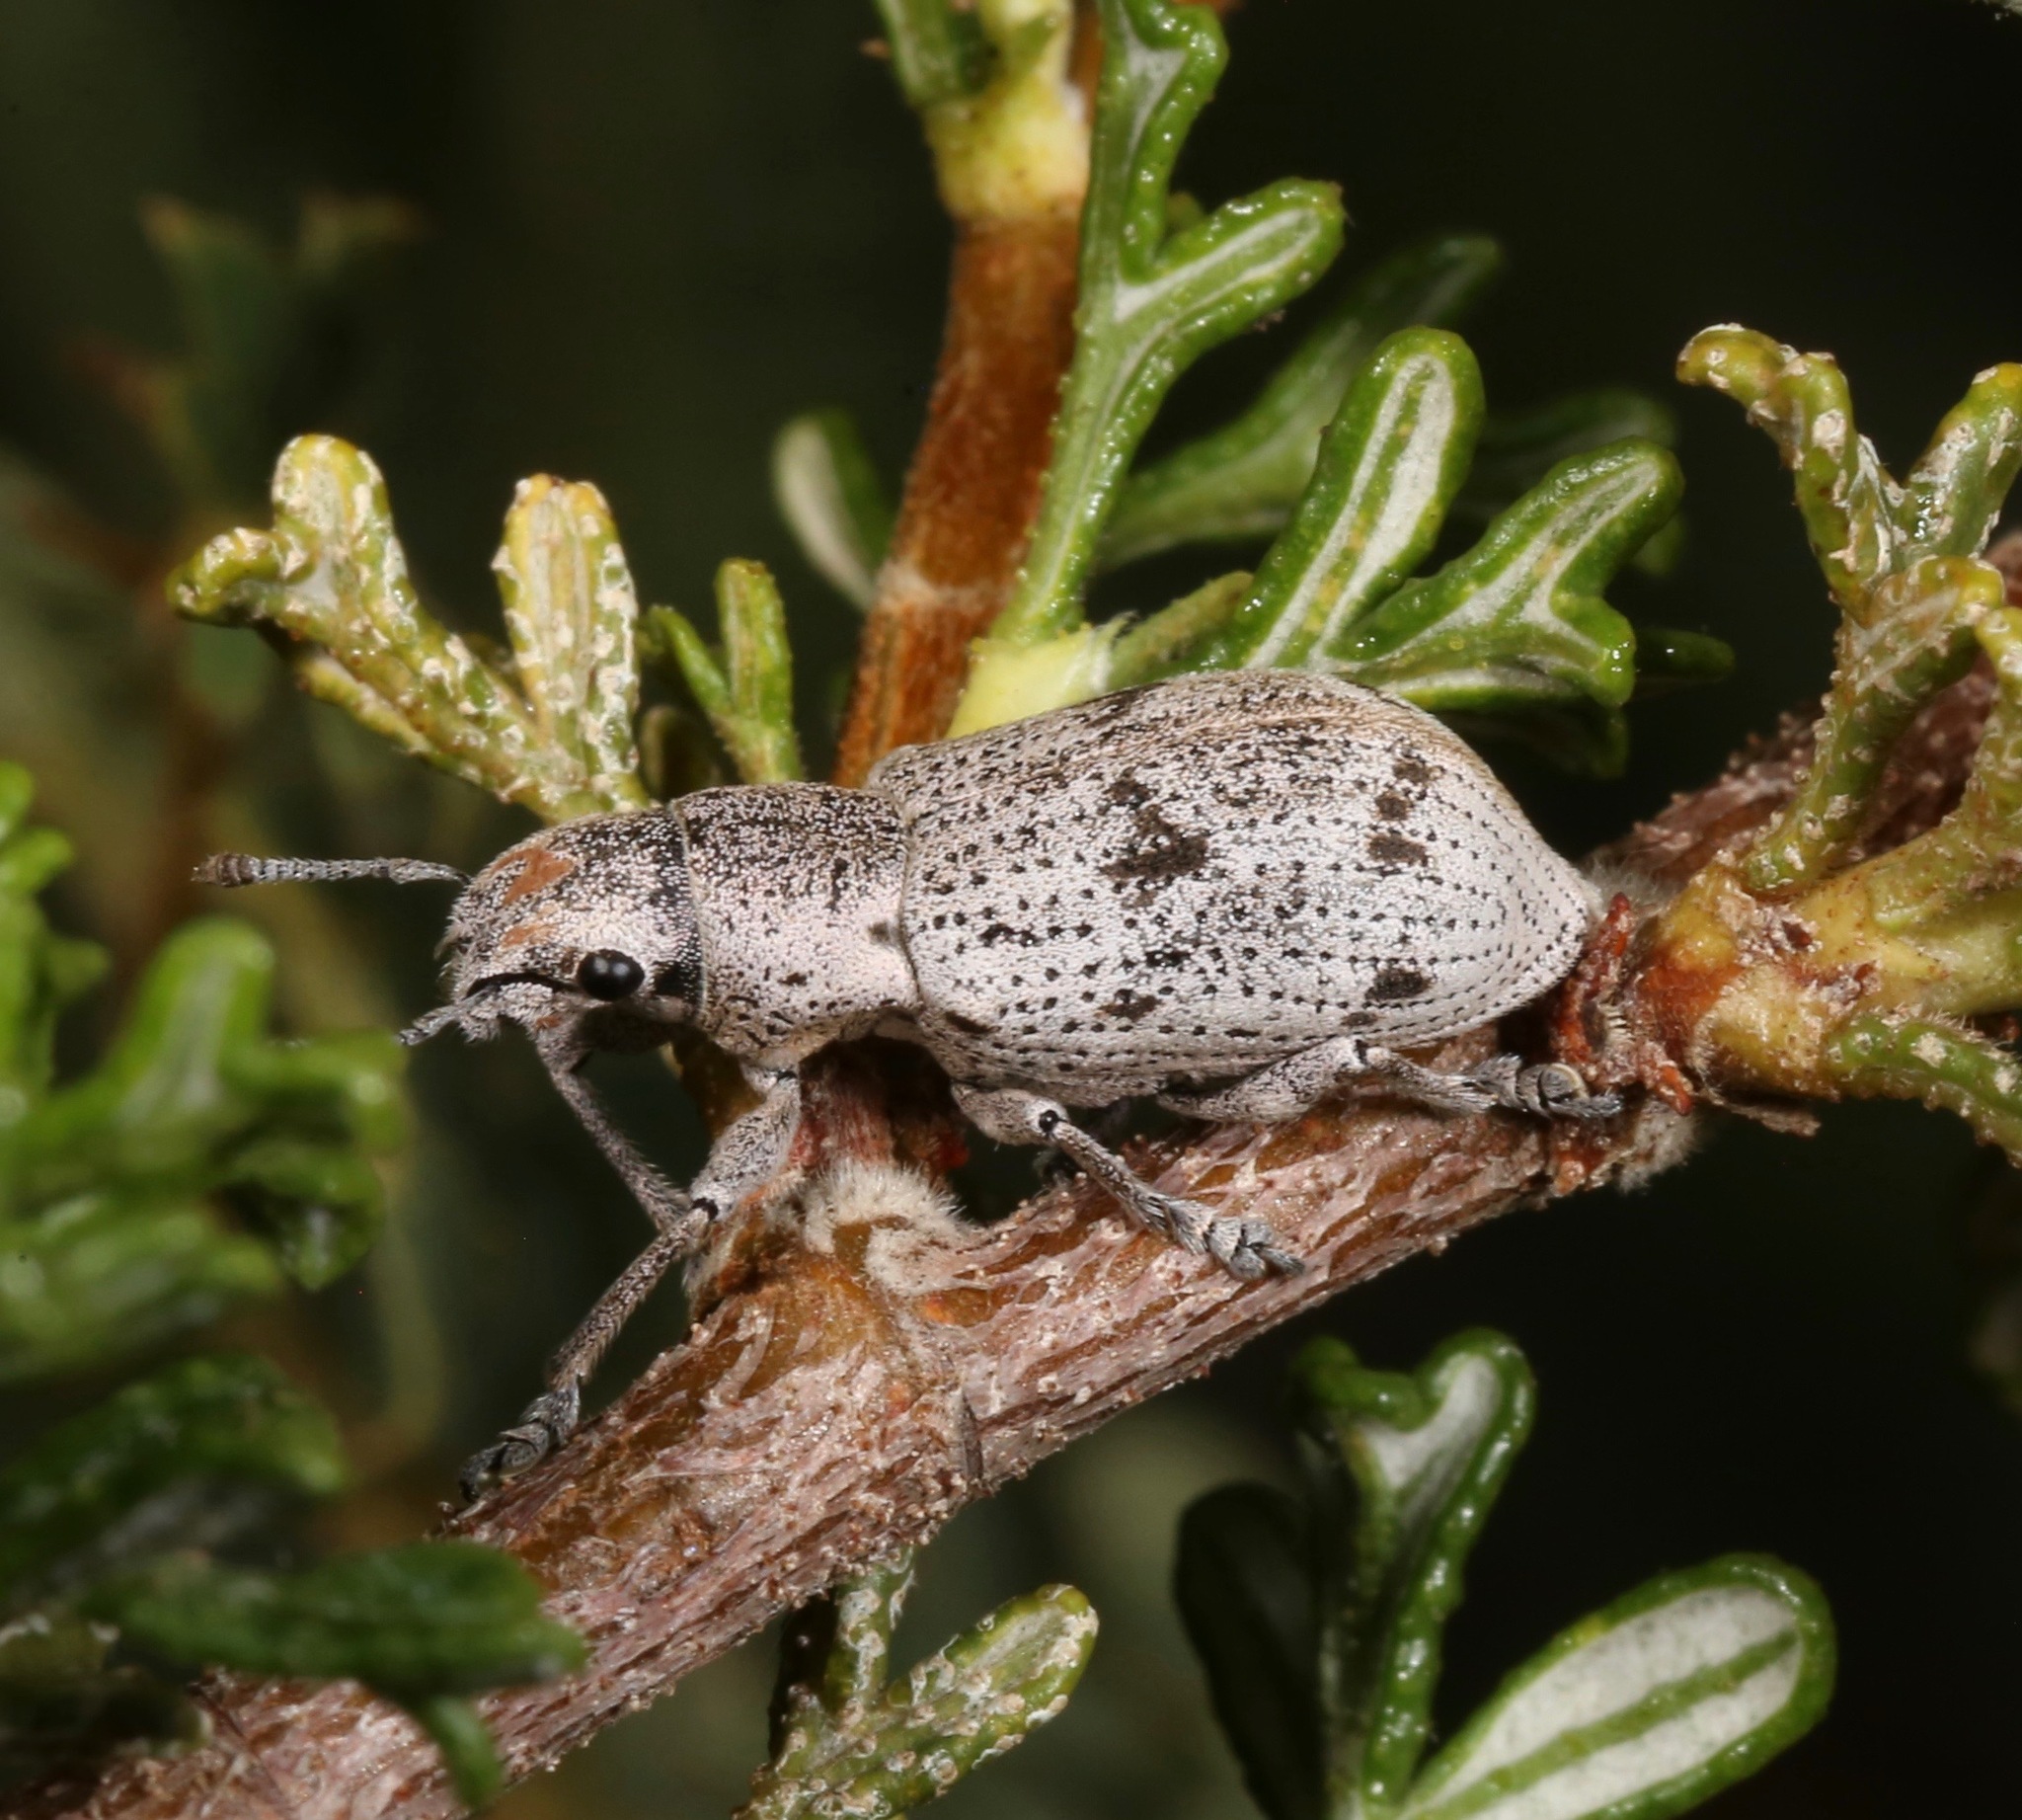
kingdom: Animalia
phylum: Arthropoda
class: Insecta
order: Coleoptera
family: Curculionidae
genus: Ericydeus
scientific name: Ericydeus lautus
